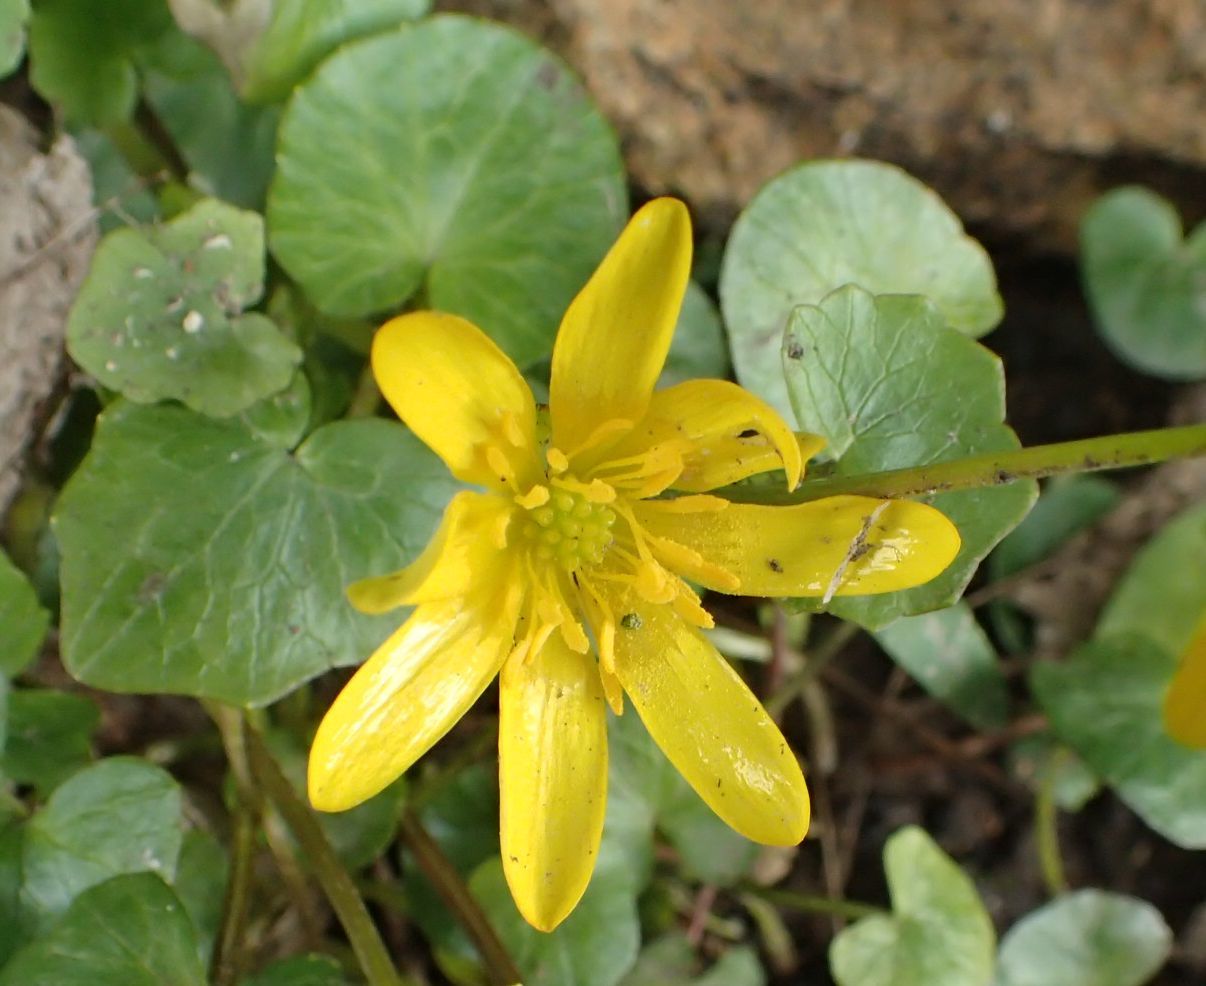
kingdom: Plantae
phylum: Tracheophyta
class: Magnoliopsida
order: Ranunculales
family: Ranunculaceae
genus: Ficaria
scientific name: Ficaria verna
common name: Lesser celandine
